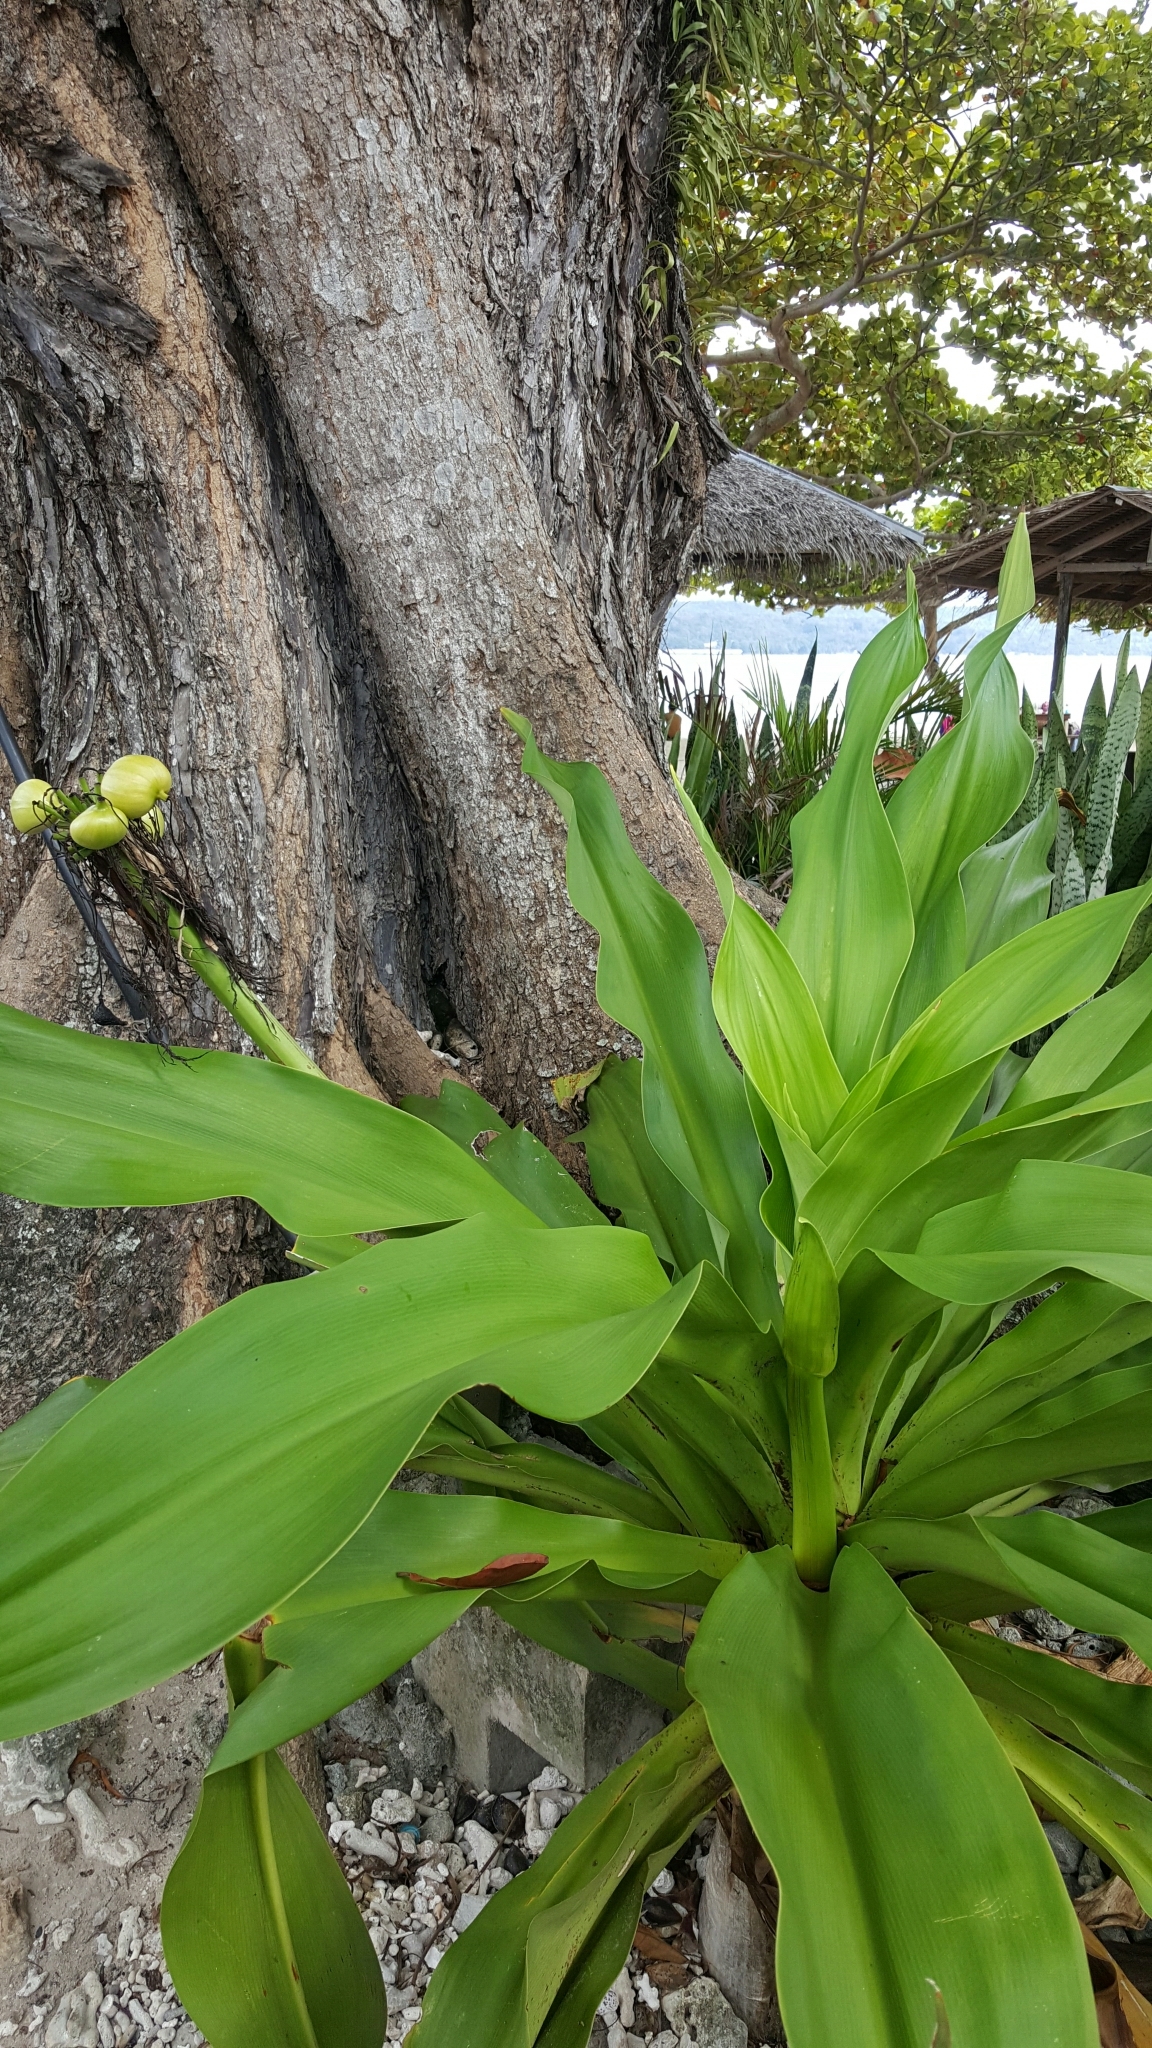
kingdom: Plantae
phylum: Tracheophyta
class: Liliopsida
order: Asparagales
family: Amaryllidaceae
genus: Crinum
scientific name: Crinum asiaticum
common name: Poisonbulb
